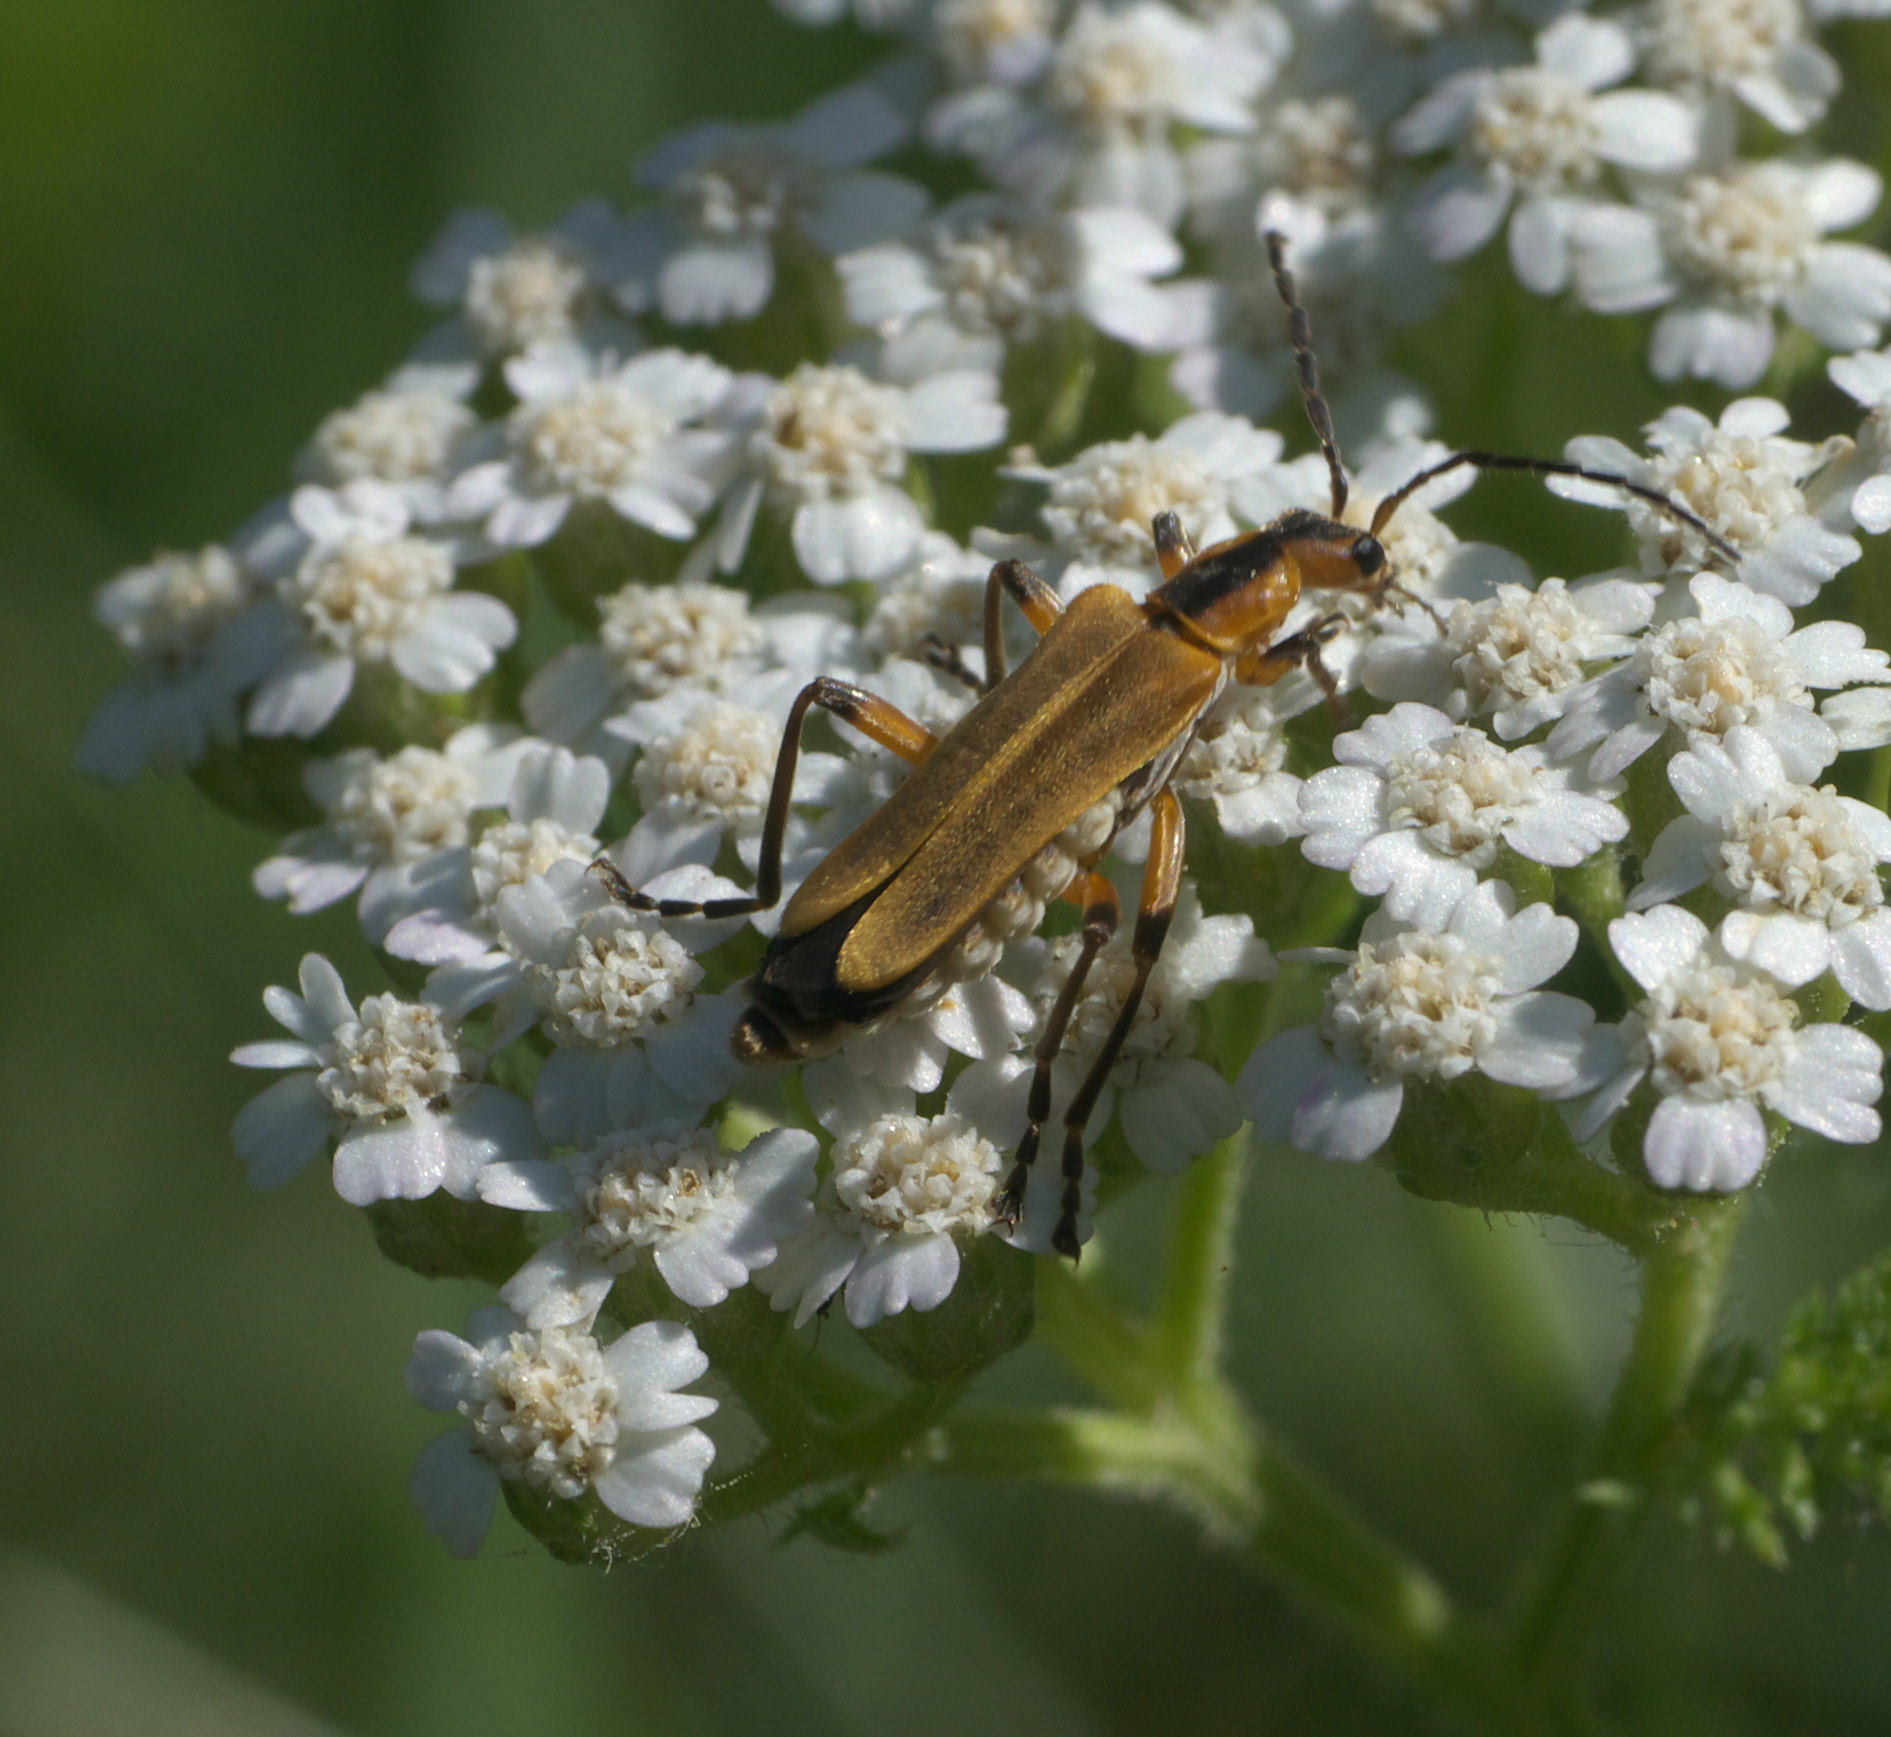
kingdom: Animalia
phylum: Arthropoda
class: Insecta
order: Coleoptera
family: Cantharidae
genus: Chauliognathus
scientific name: Chauliognathus marginatus
